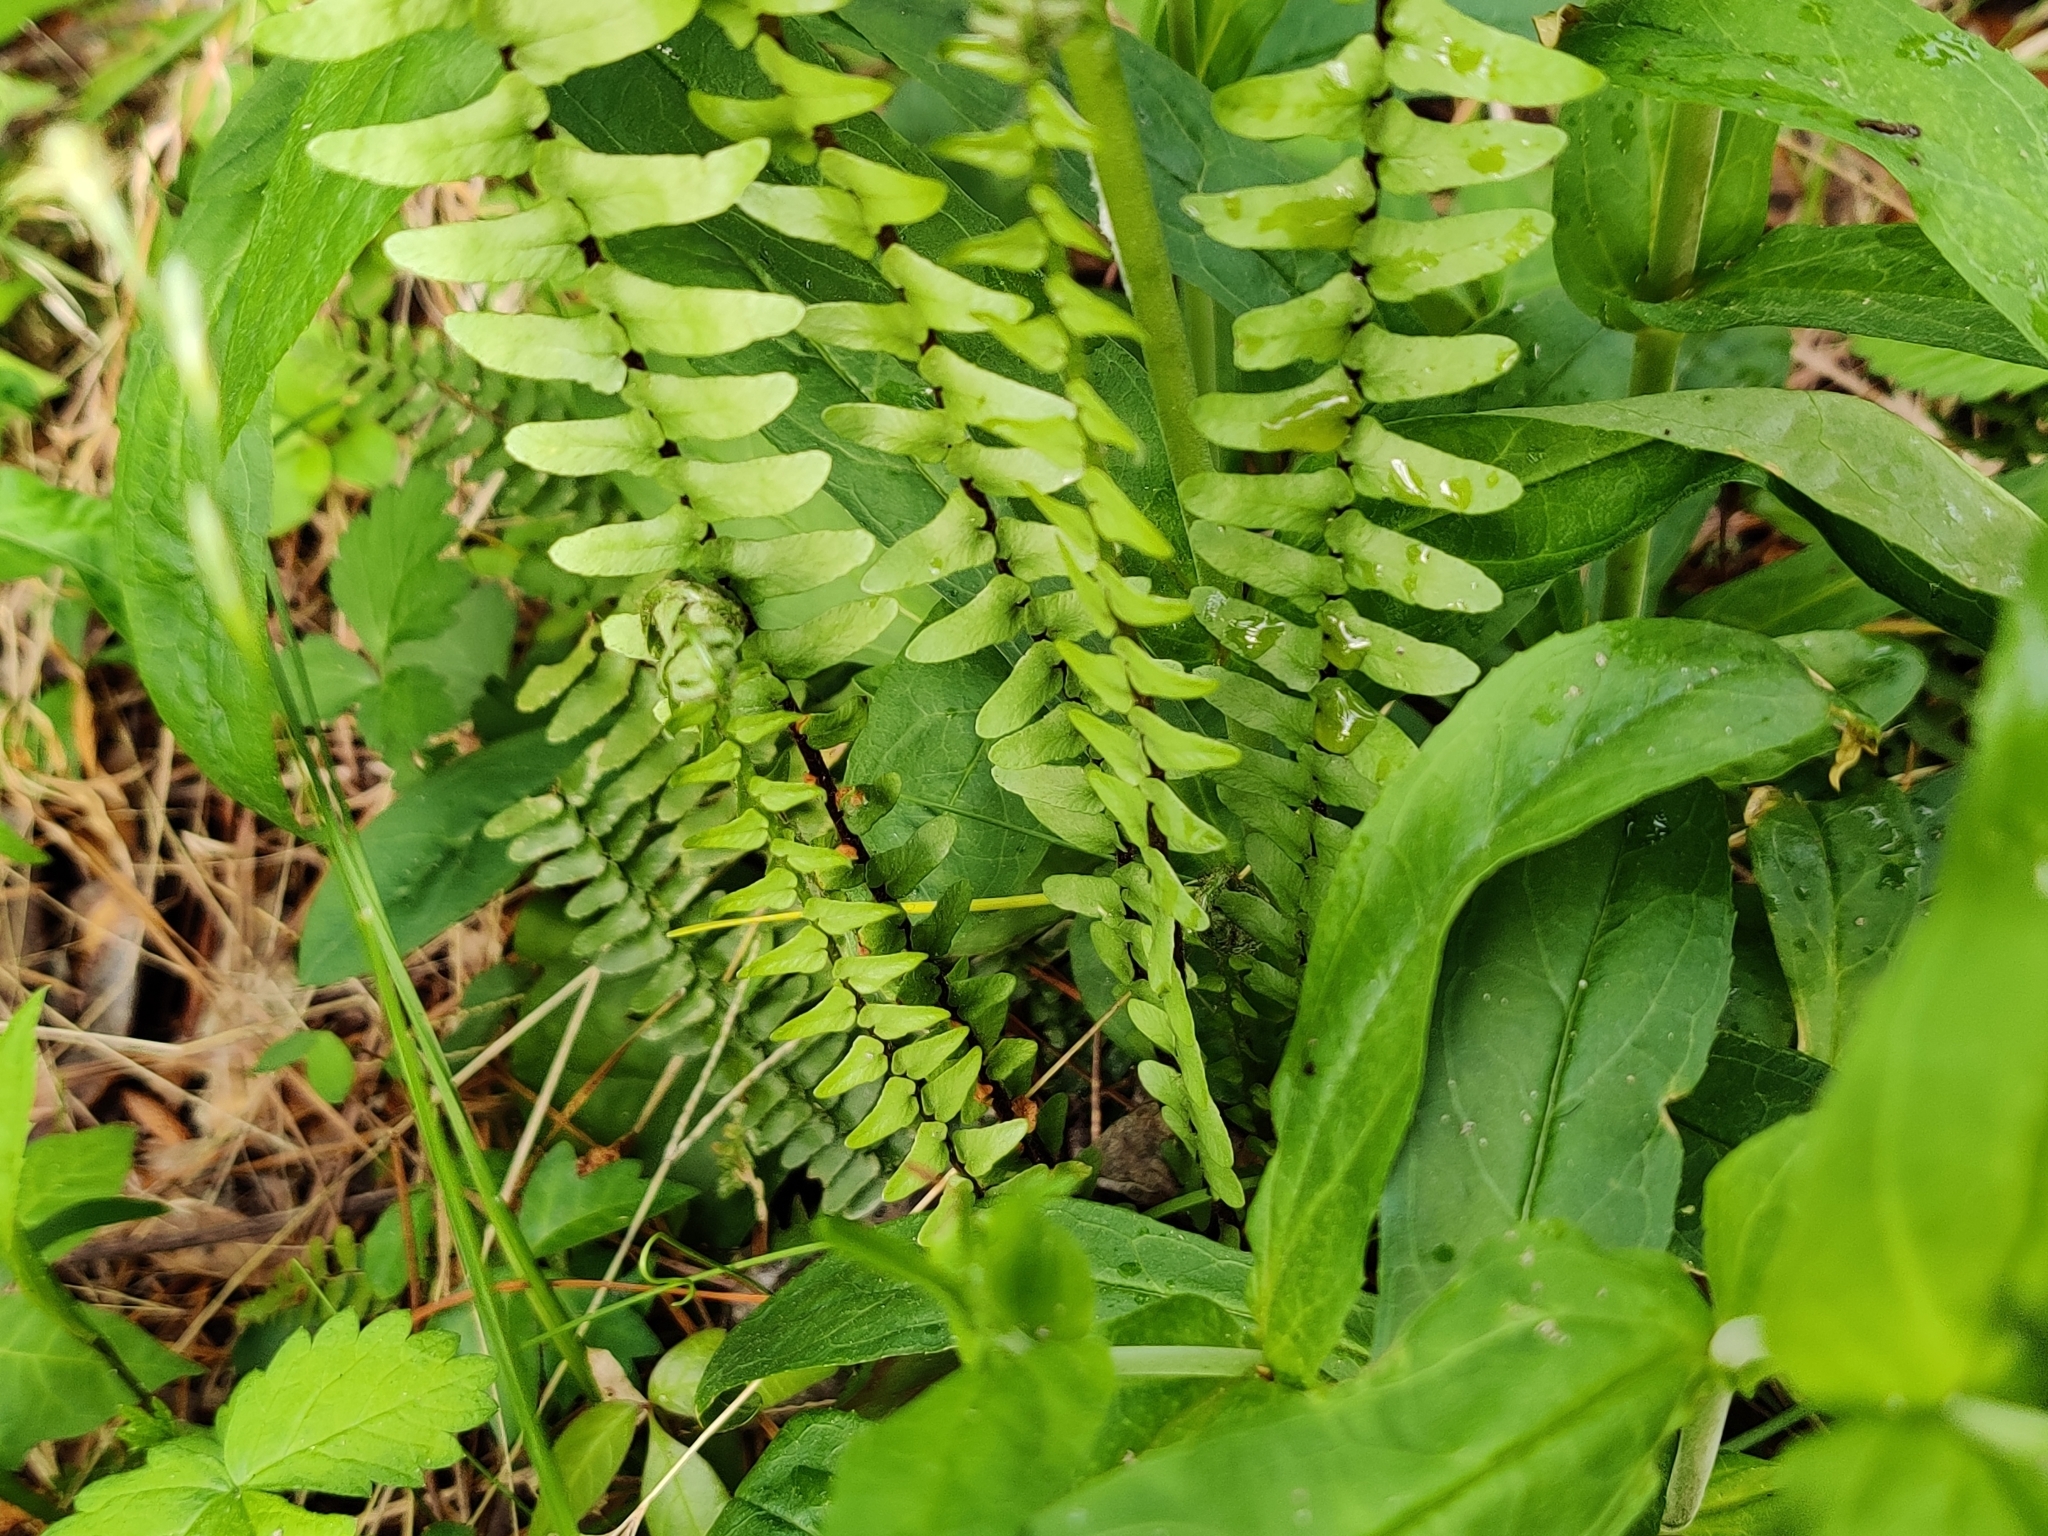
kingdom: Plantae
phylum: Tracheophyta
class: Polypodiopsida
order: Polypodiales
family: Aspleniaceae
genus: Asplenium
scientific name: Asplenium platyneuron
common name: Ebony spleenwort
